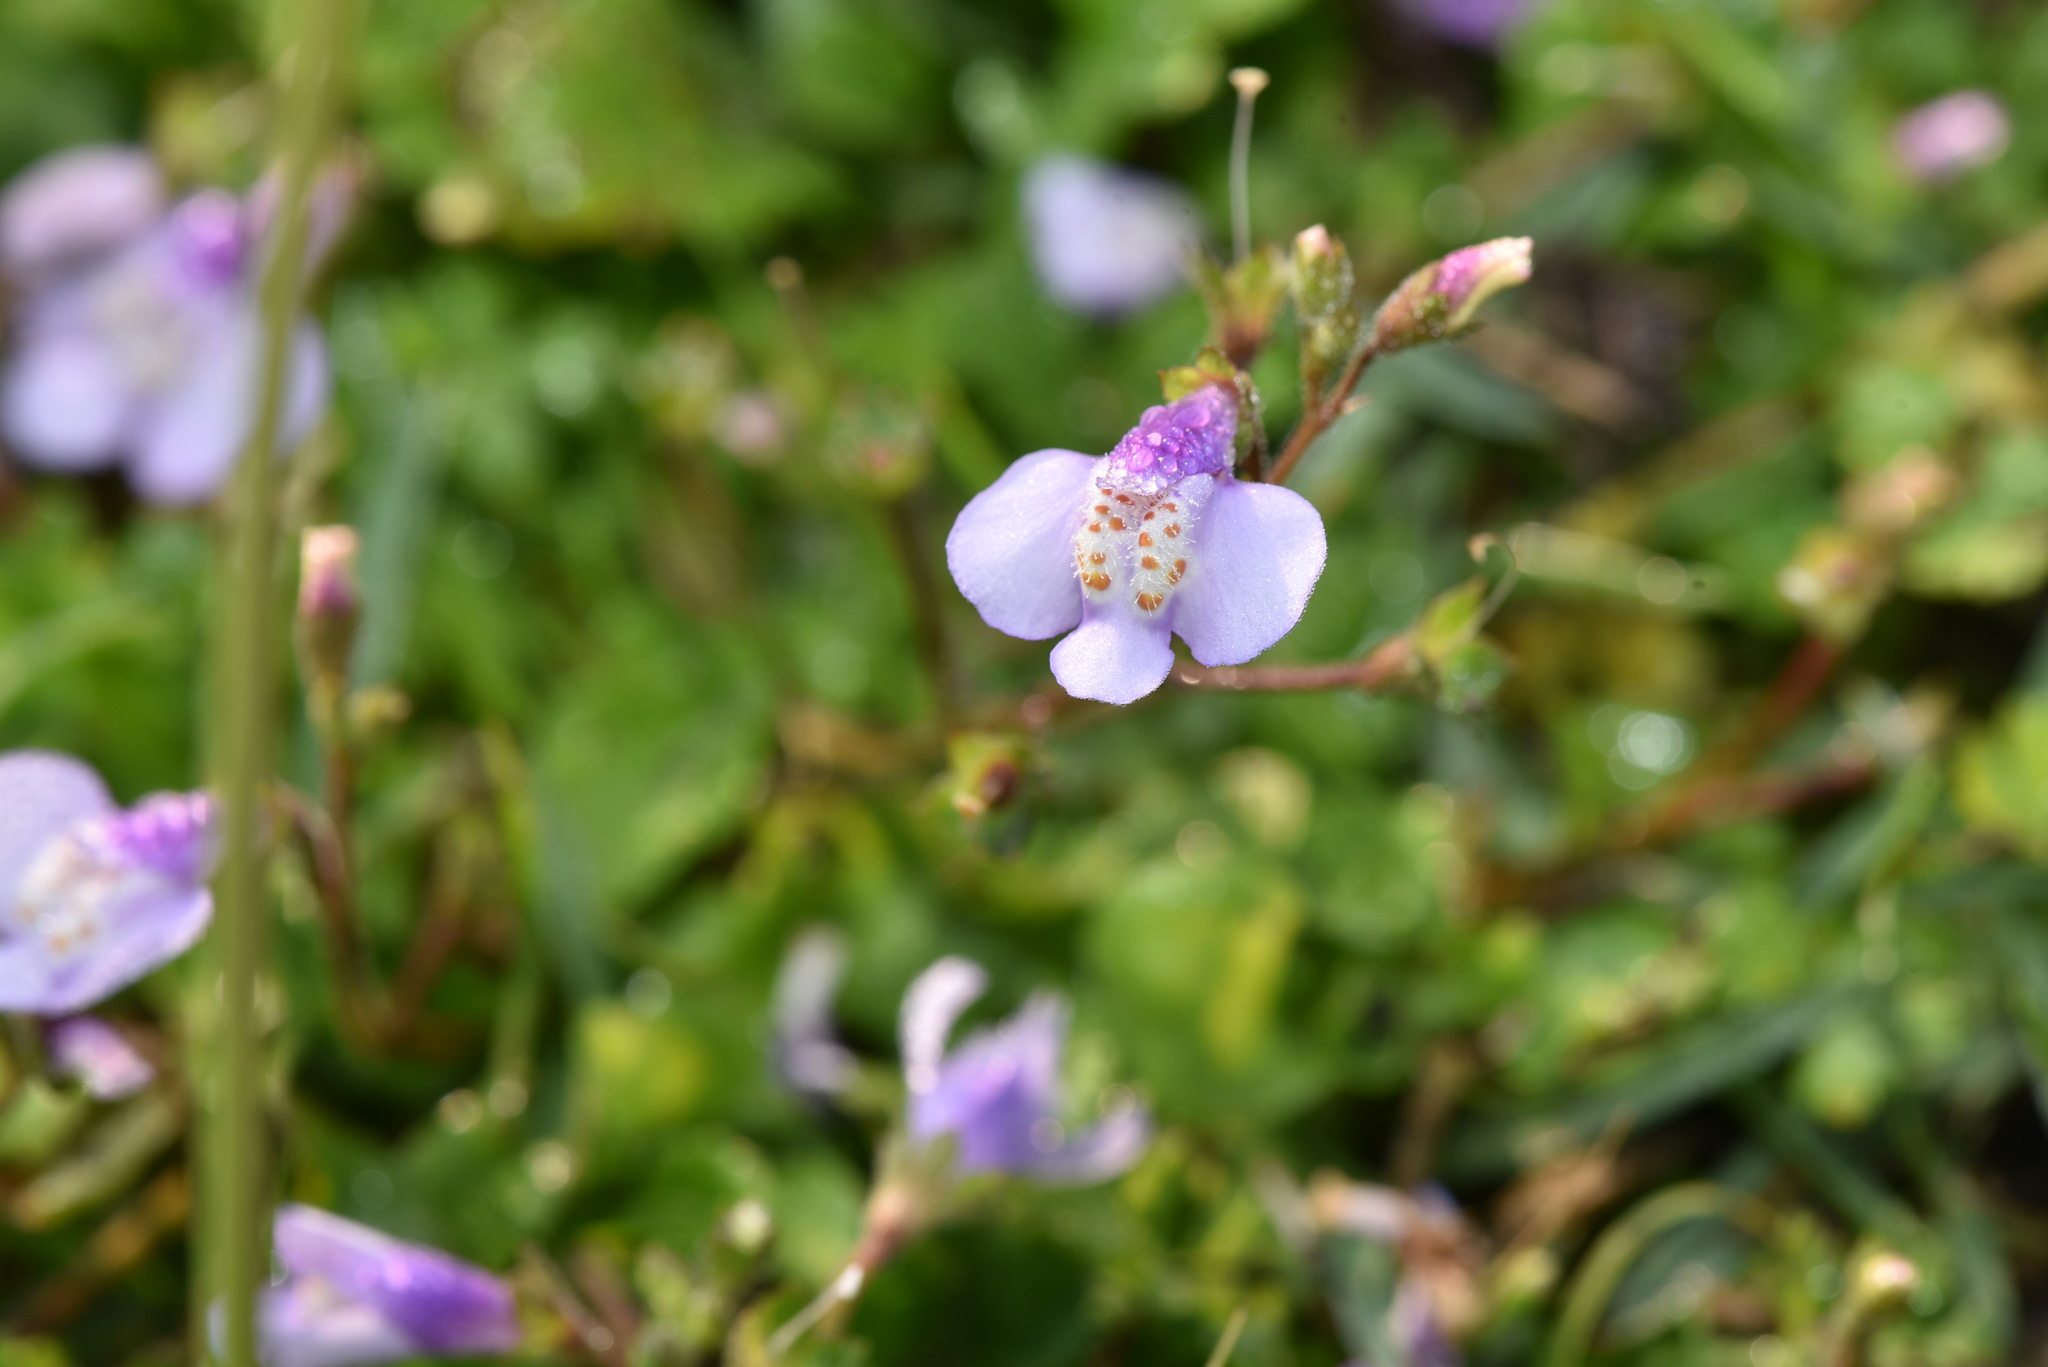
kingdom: Plantae
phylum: Tracheophyta
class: Magnoliopsida
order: Lamiales
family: Mazaceae
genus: Mazus
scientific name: Mazus fauriei
